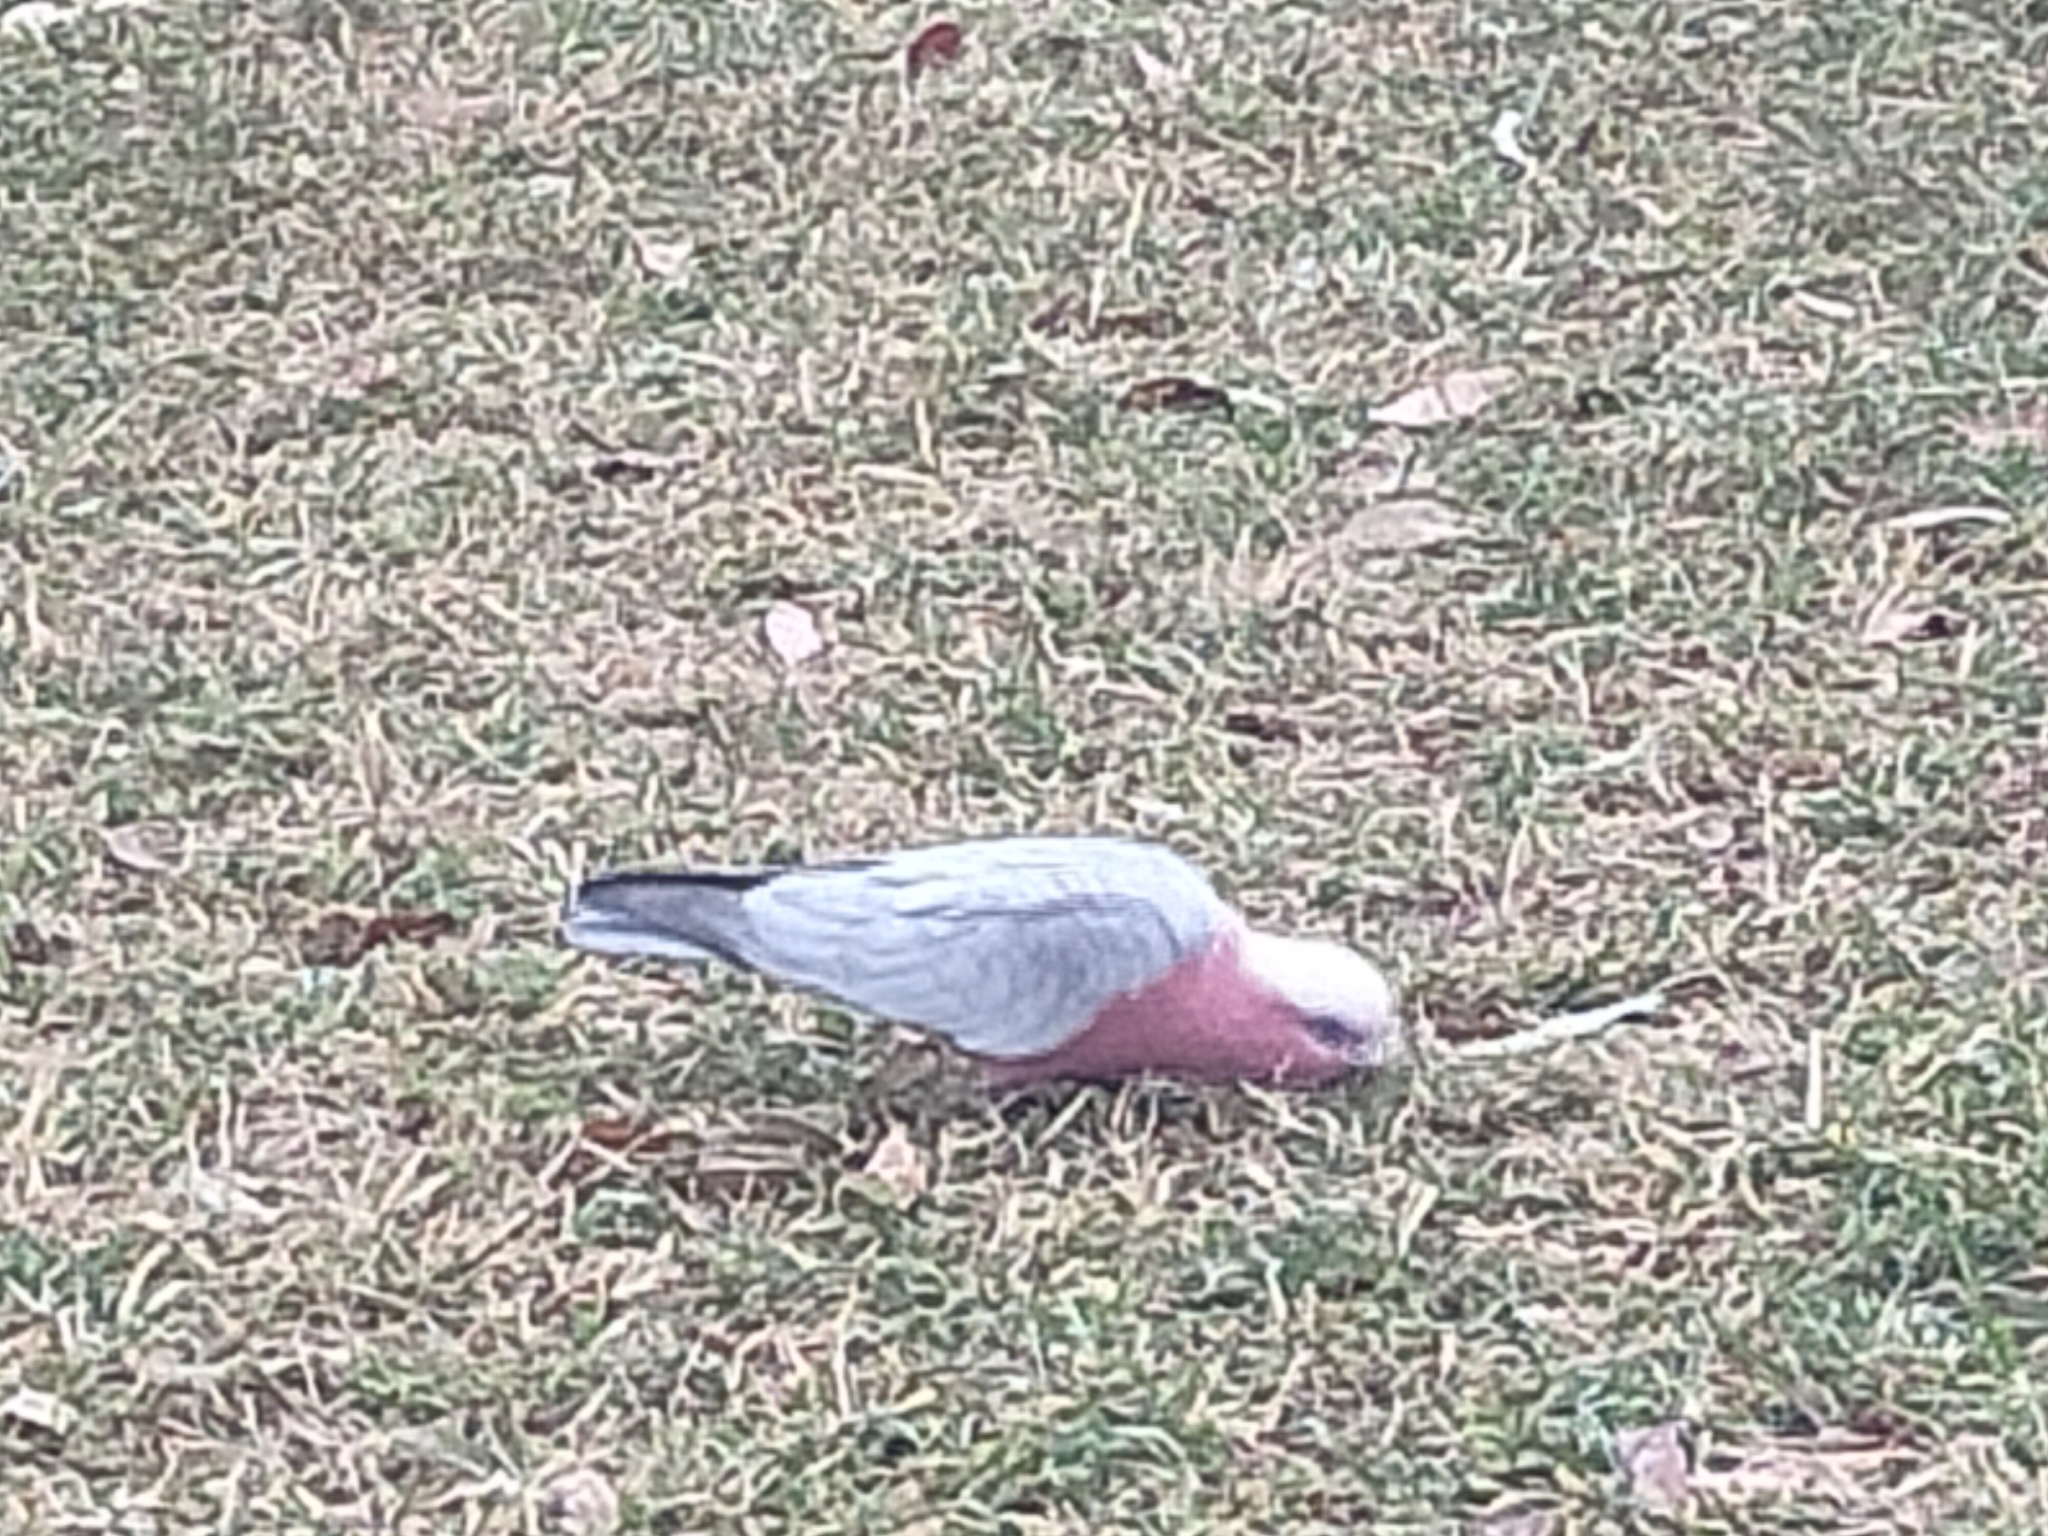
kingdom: Animalia
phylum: Chordata
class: Aves
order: Psittaciformes
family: Psittacidae
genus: Eolophus
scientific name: Eolophus roseicapilla
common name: Galah
